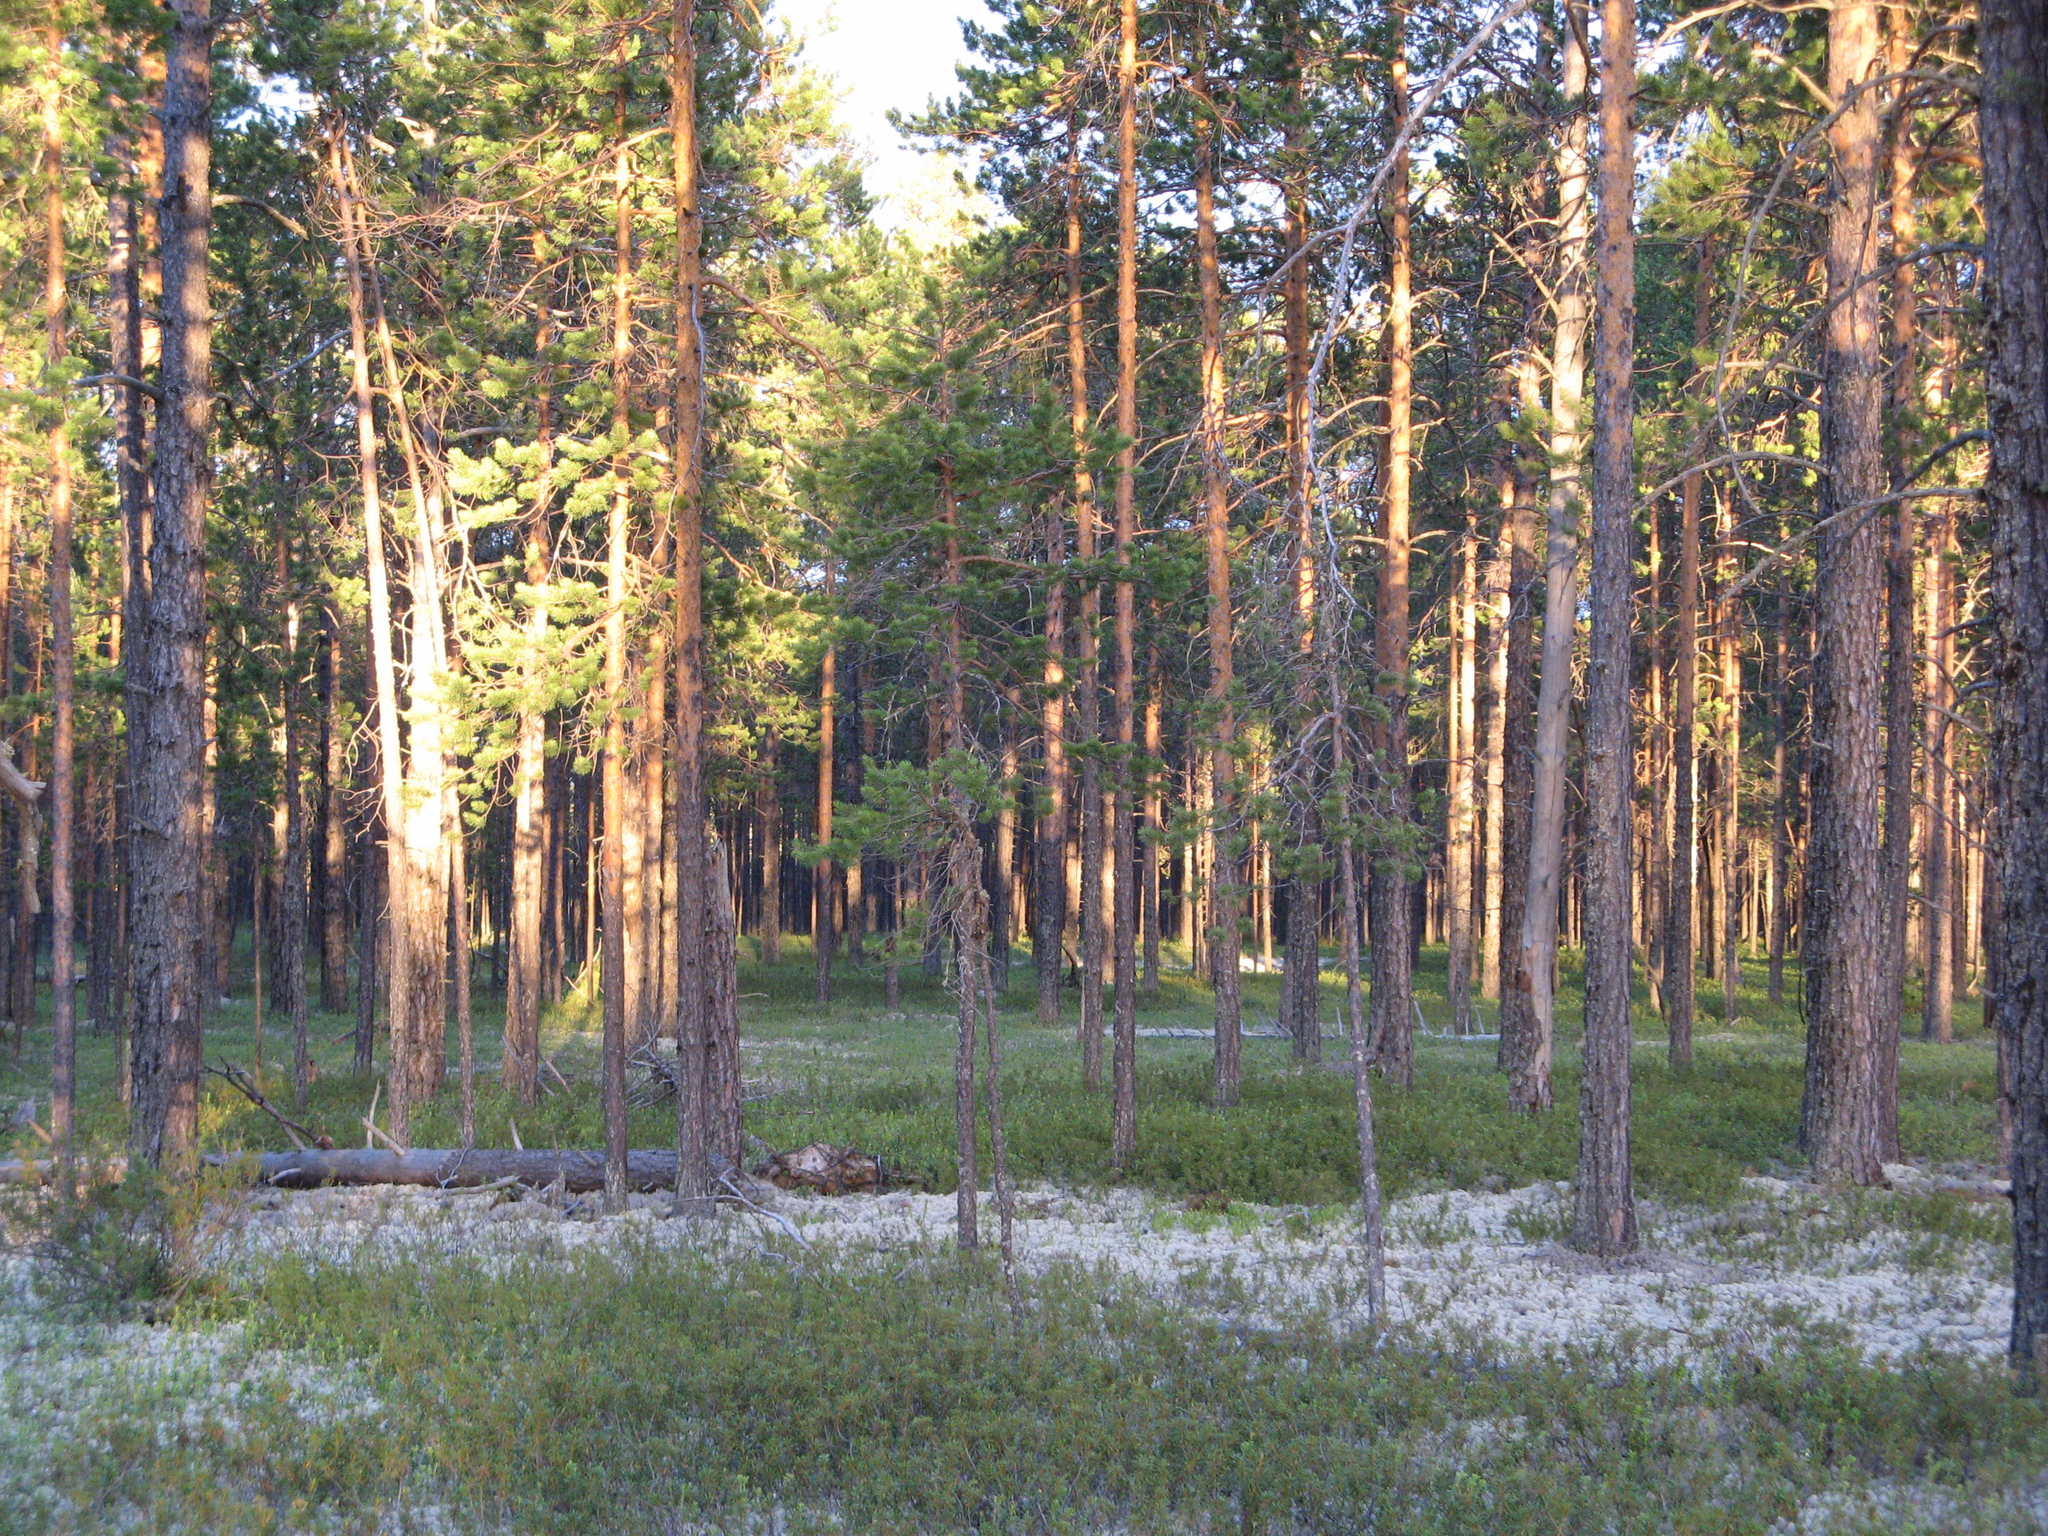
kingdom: Plantae
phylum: Tracheophyta
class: Pinopsida
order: Pinales
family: Pinaceae
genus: Pinus
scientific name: Pinus sylvestris
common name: Scots pine
